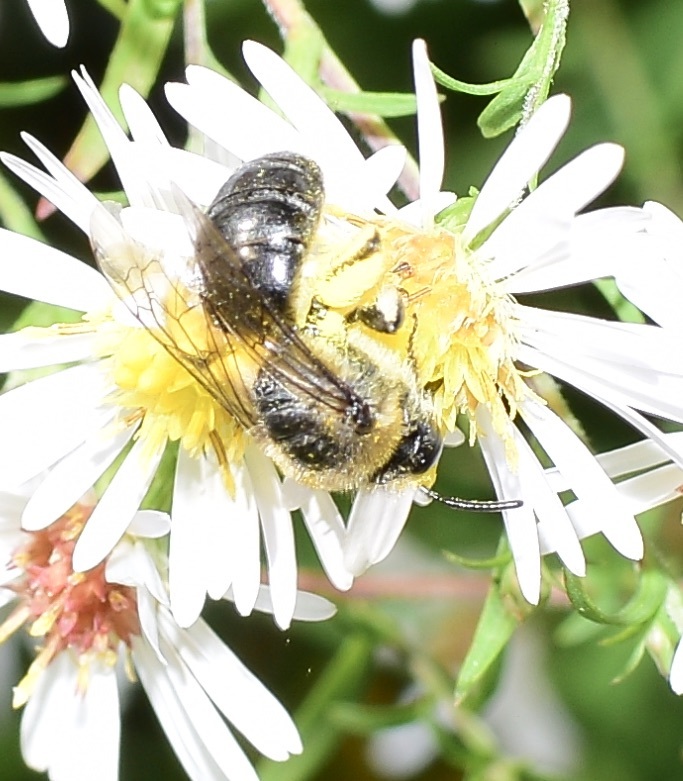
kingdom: Animalia
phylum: Arthropoda
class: Insecta
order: Hymenoptera
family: Colletidae
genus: Colletes
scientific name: Colletes compactus
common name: Aster cellophane bee
